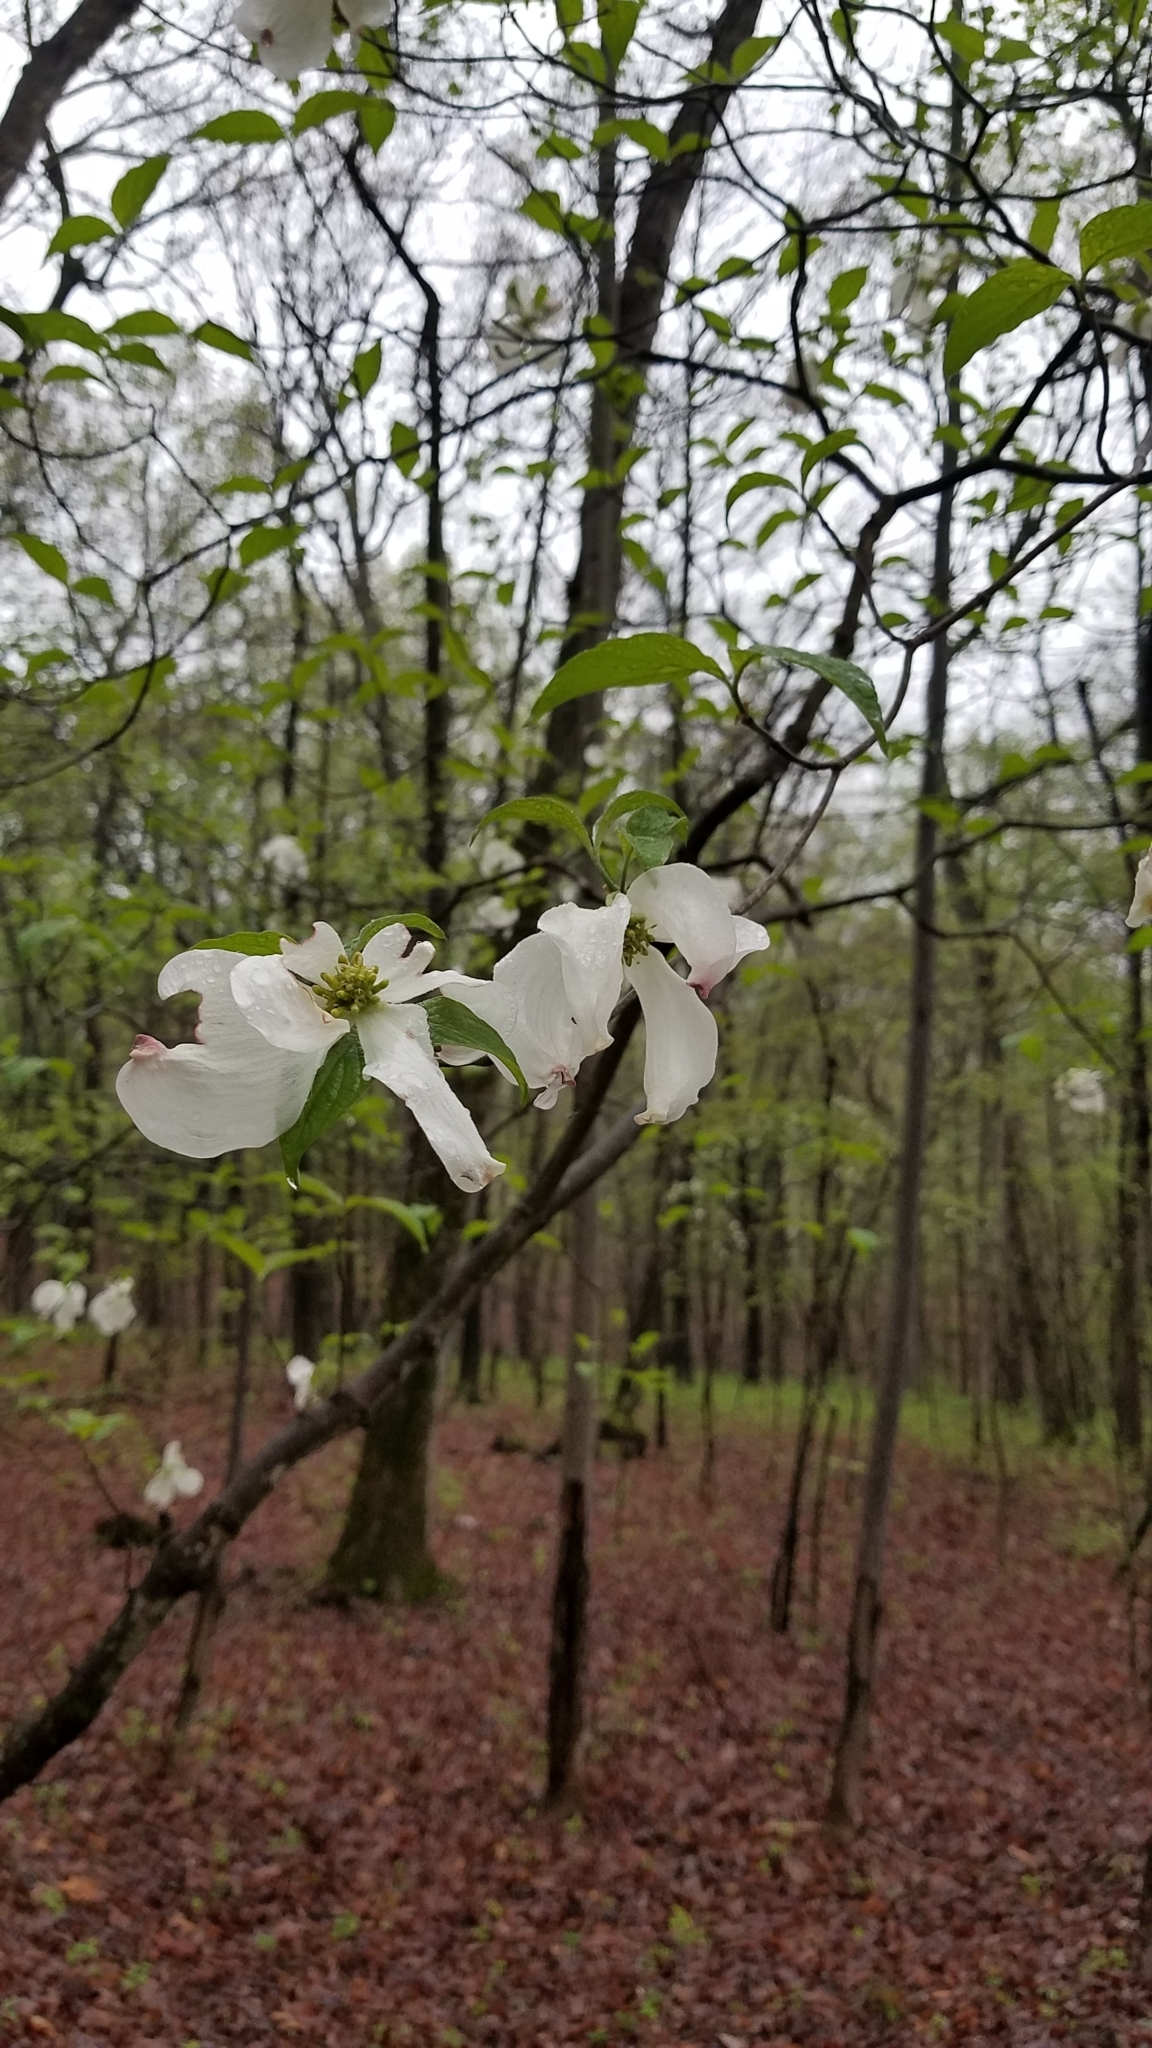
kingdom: Plantae
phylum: Tracheophyta
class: Magnoliopsida
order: Cornales
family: Cornaceae
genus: Cornus
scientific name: Cornus florida
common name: Flowering dogwood
